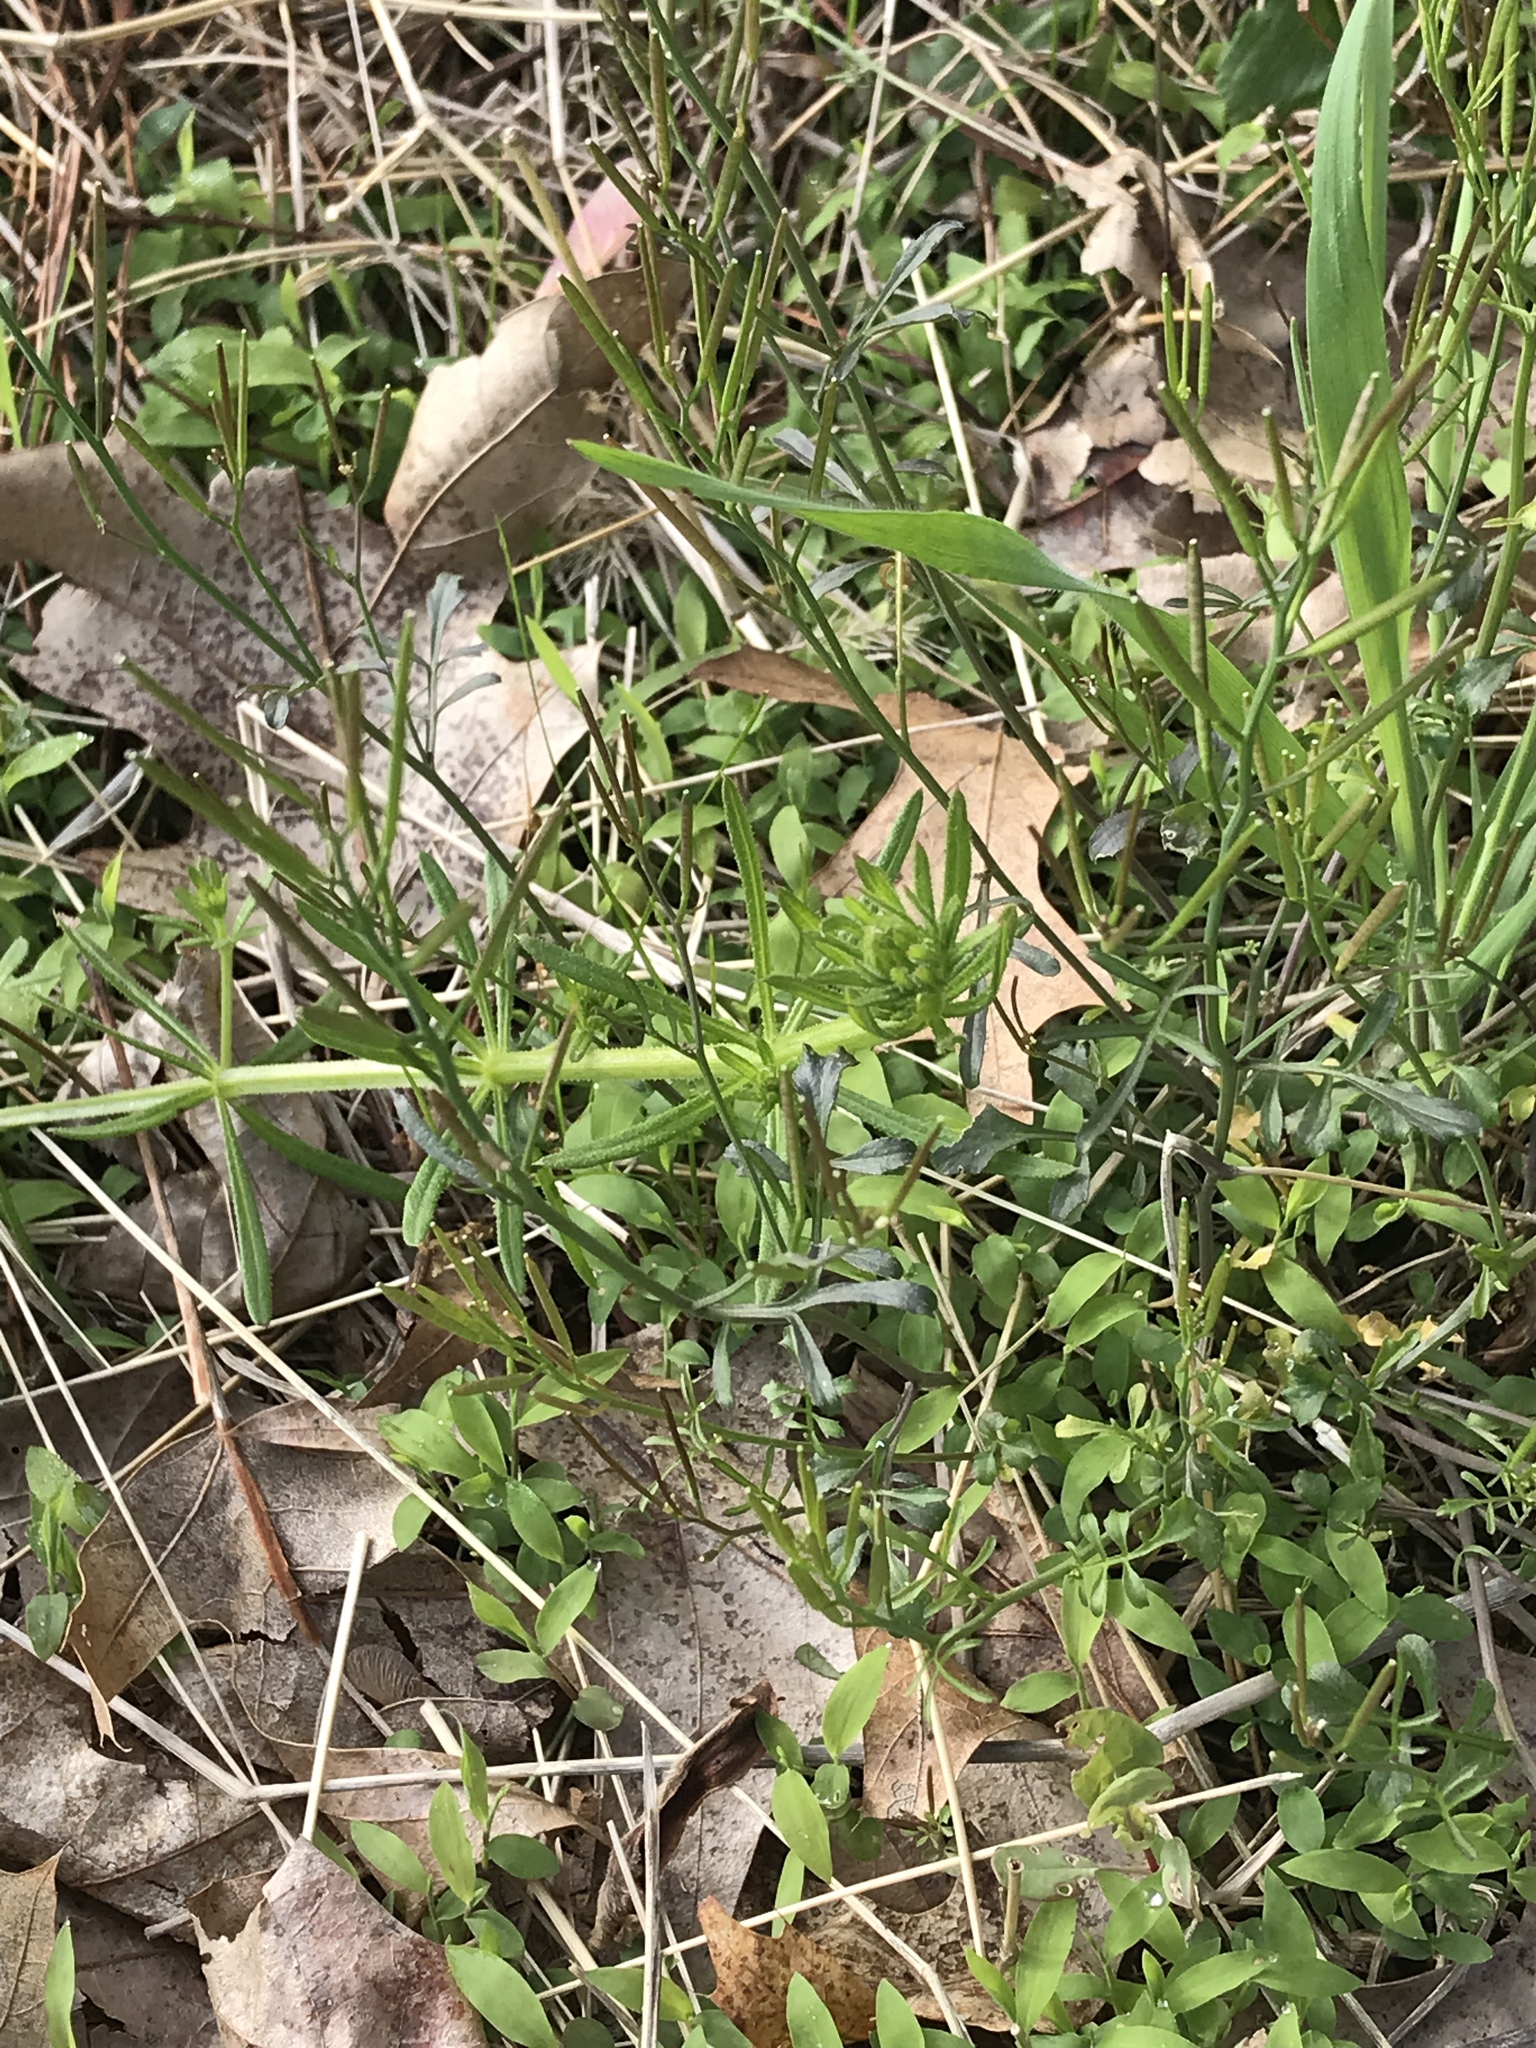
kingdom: Plantae
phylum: Tracheophyta
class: Magnoliopsida
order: Brassicales
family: Brassicaceae
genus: Cardamine
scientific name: Cardamine hirsuta
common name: Hairy bittercress
